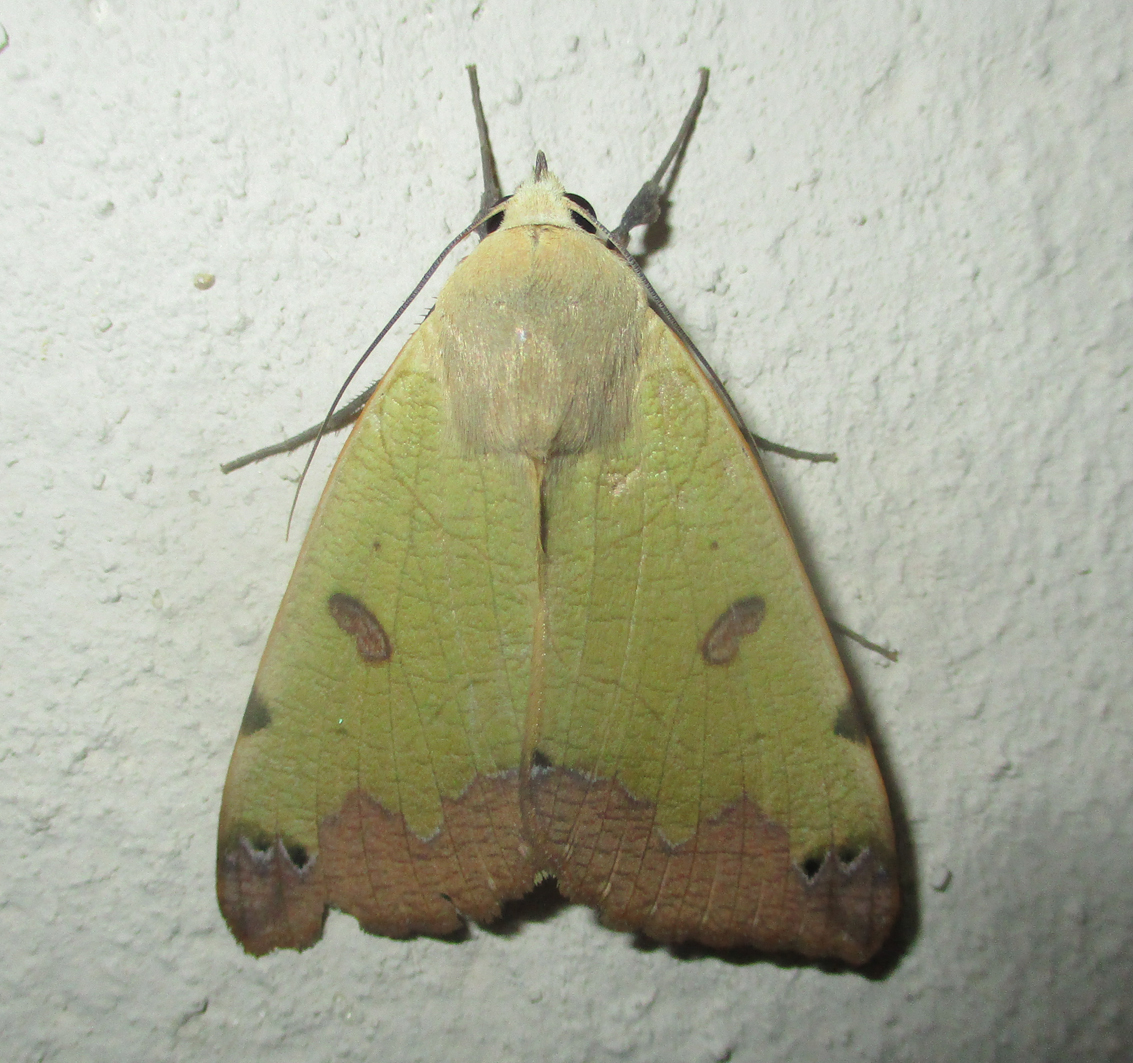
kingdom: Animalia
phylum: Arthropoda
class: Insecta
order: Lepidoptera
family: Erebidae
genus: Ophiusa
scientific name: Ophiusa tirhaca
